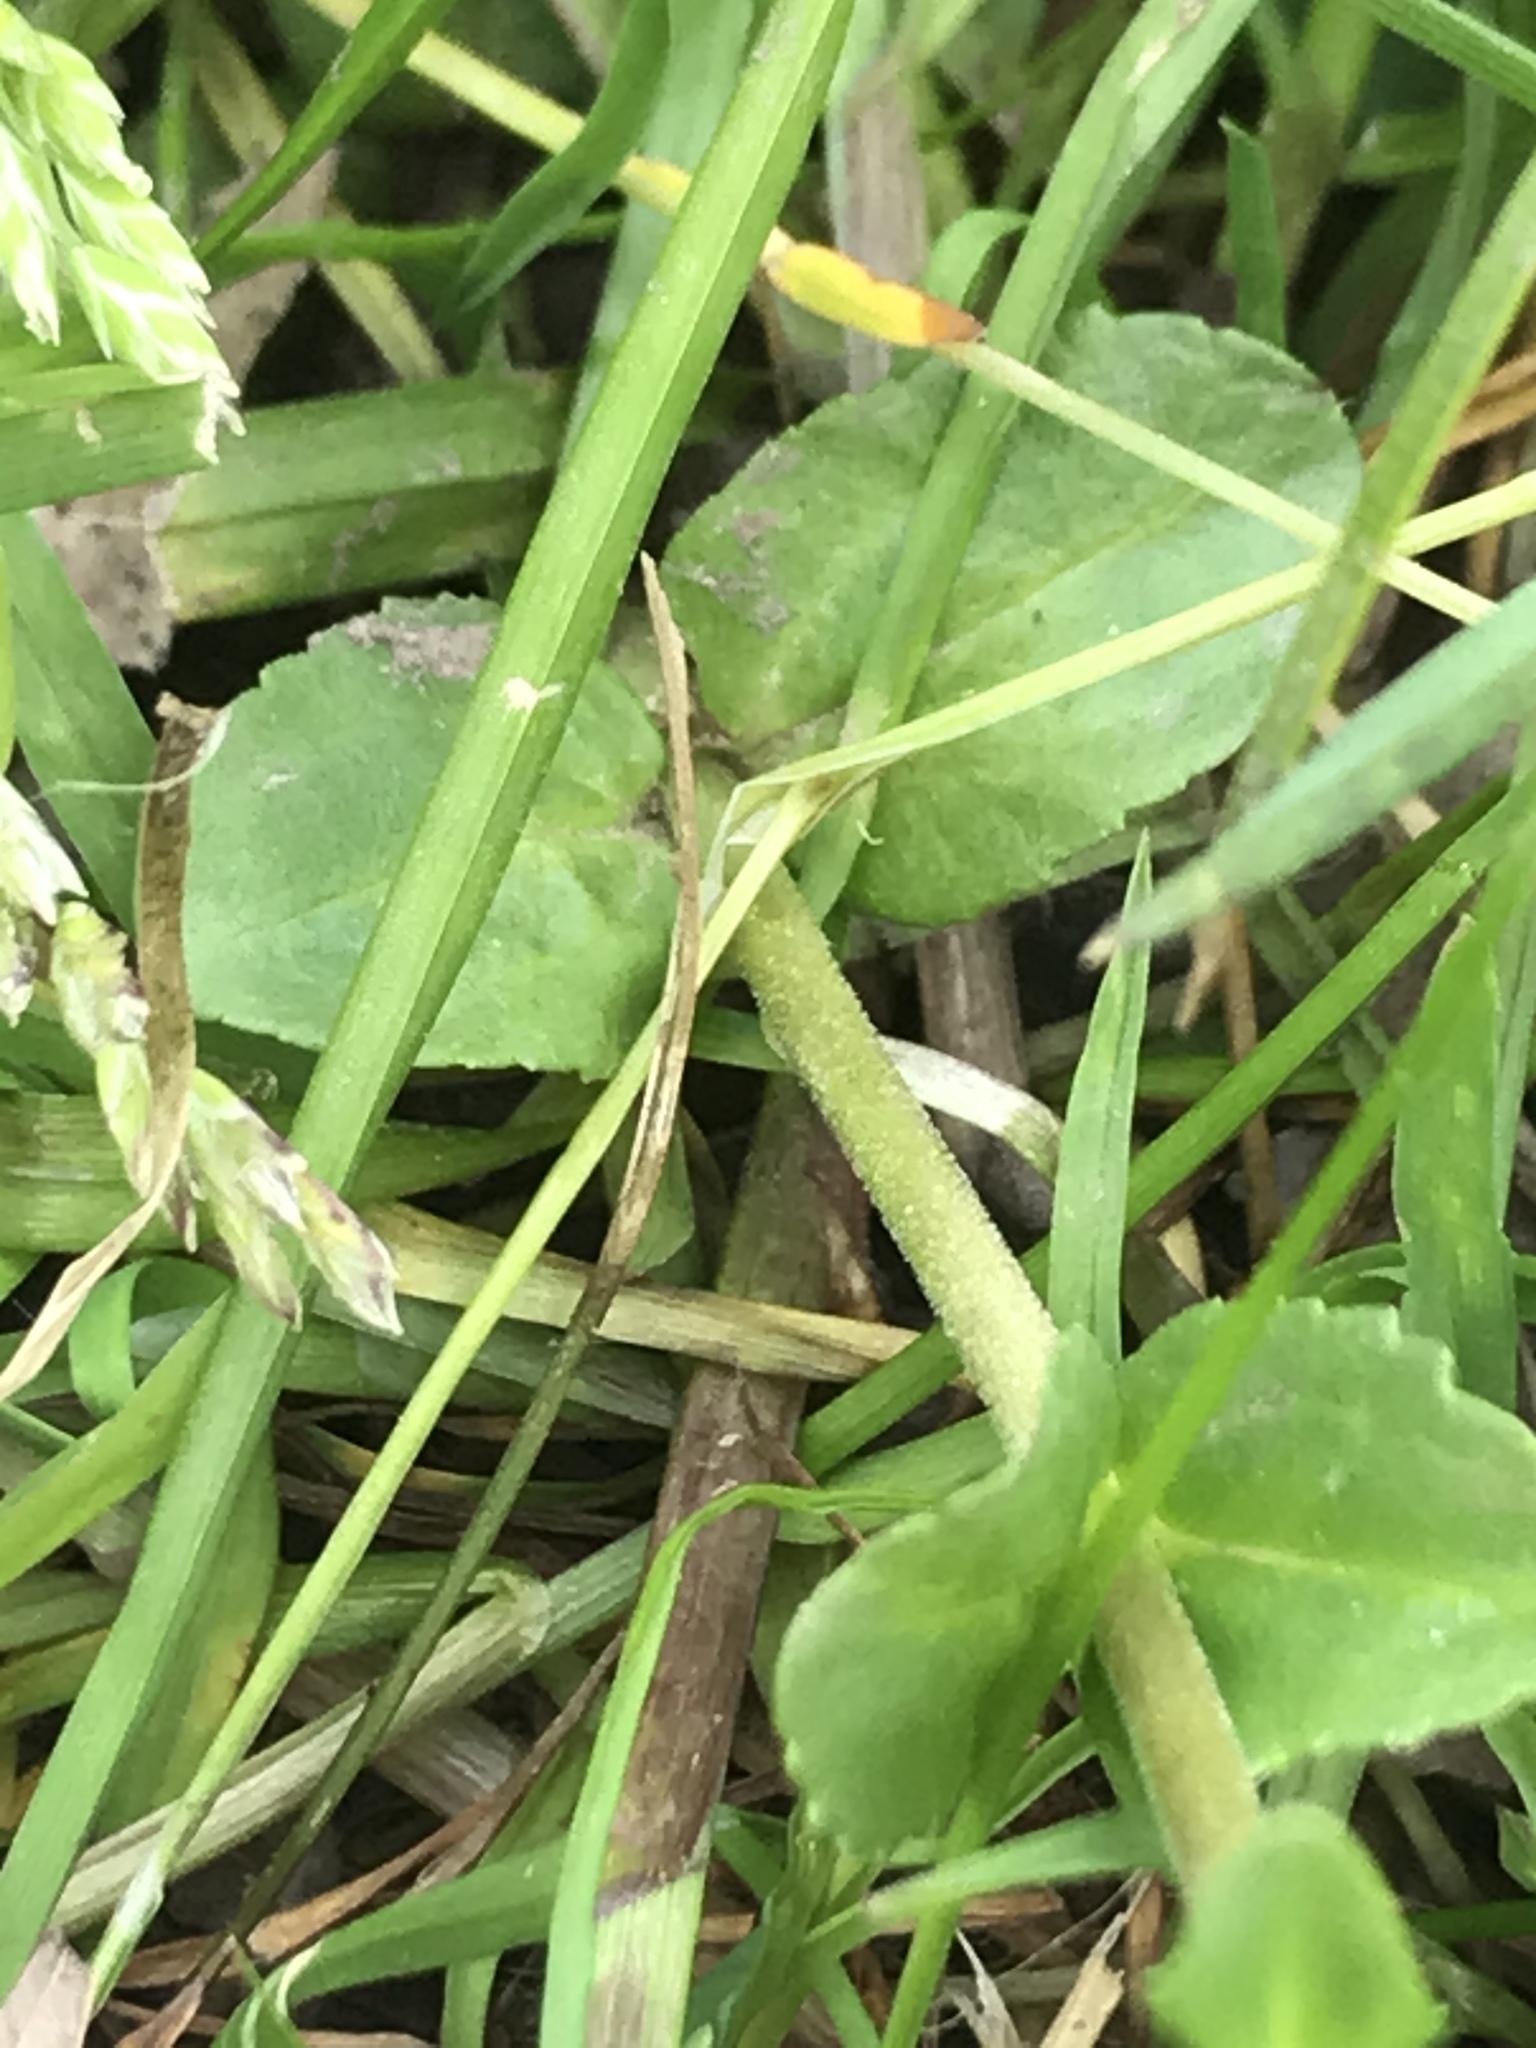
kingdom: Plantae
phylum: Tracheophyta
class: Magnoliopsida
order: Lamiales
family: Plantaginaceae
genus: Veronica
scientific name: Veronica serpyllifolia
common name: Thyme-leaved speedwell
